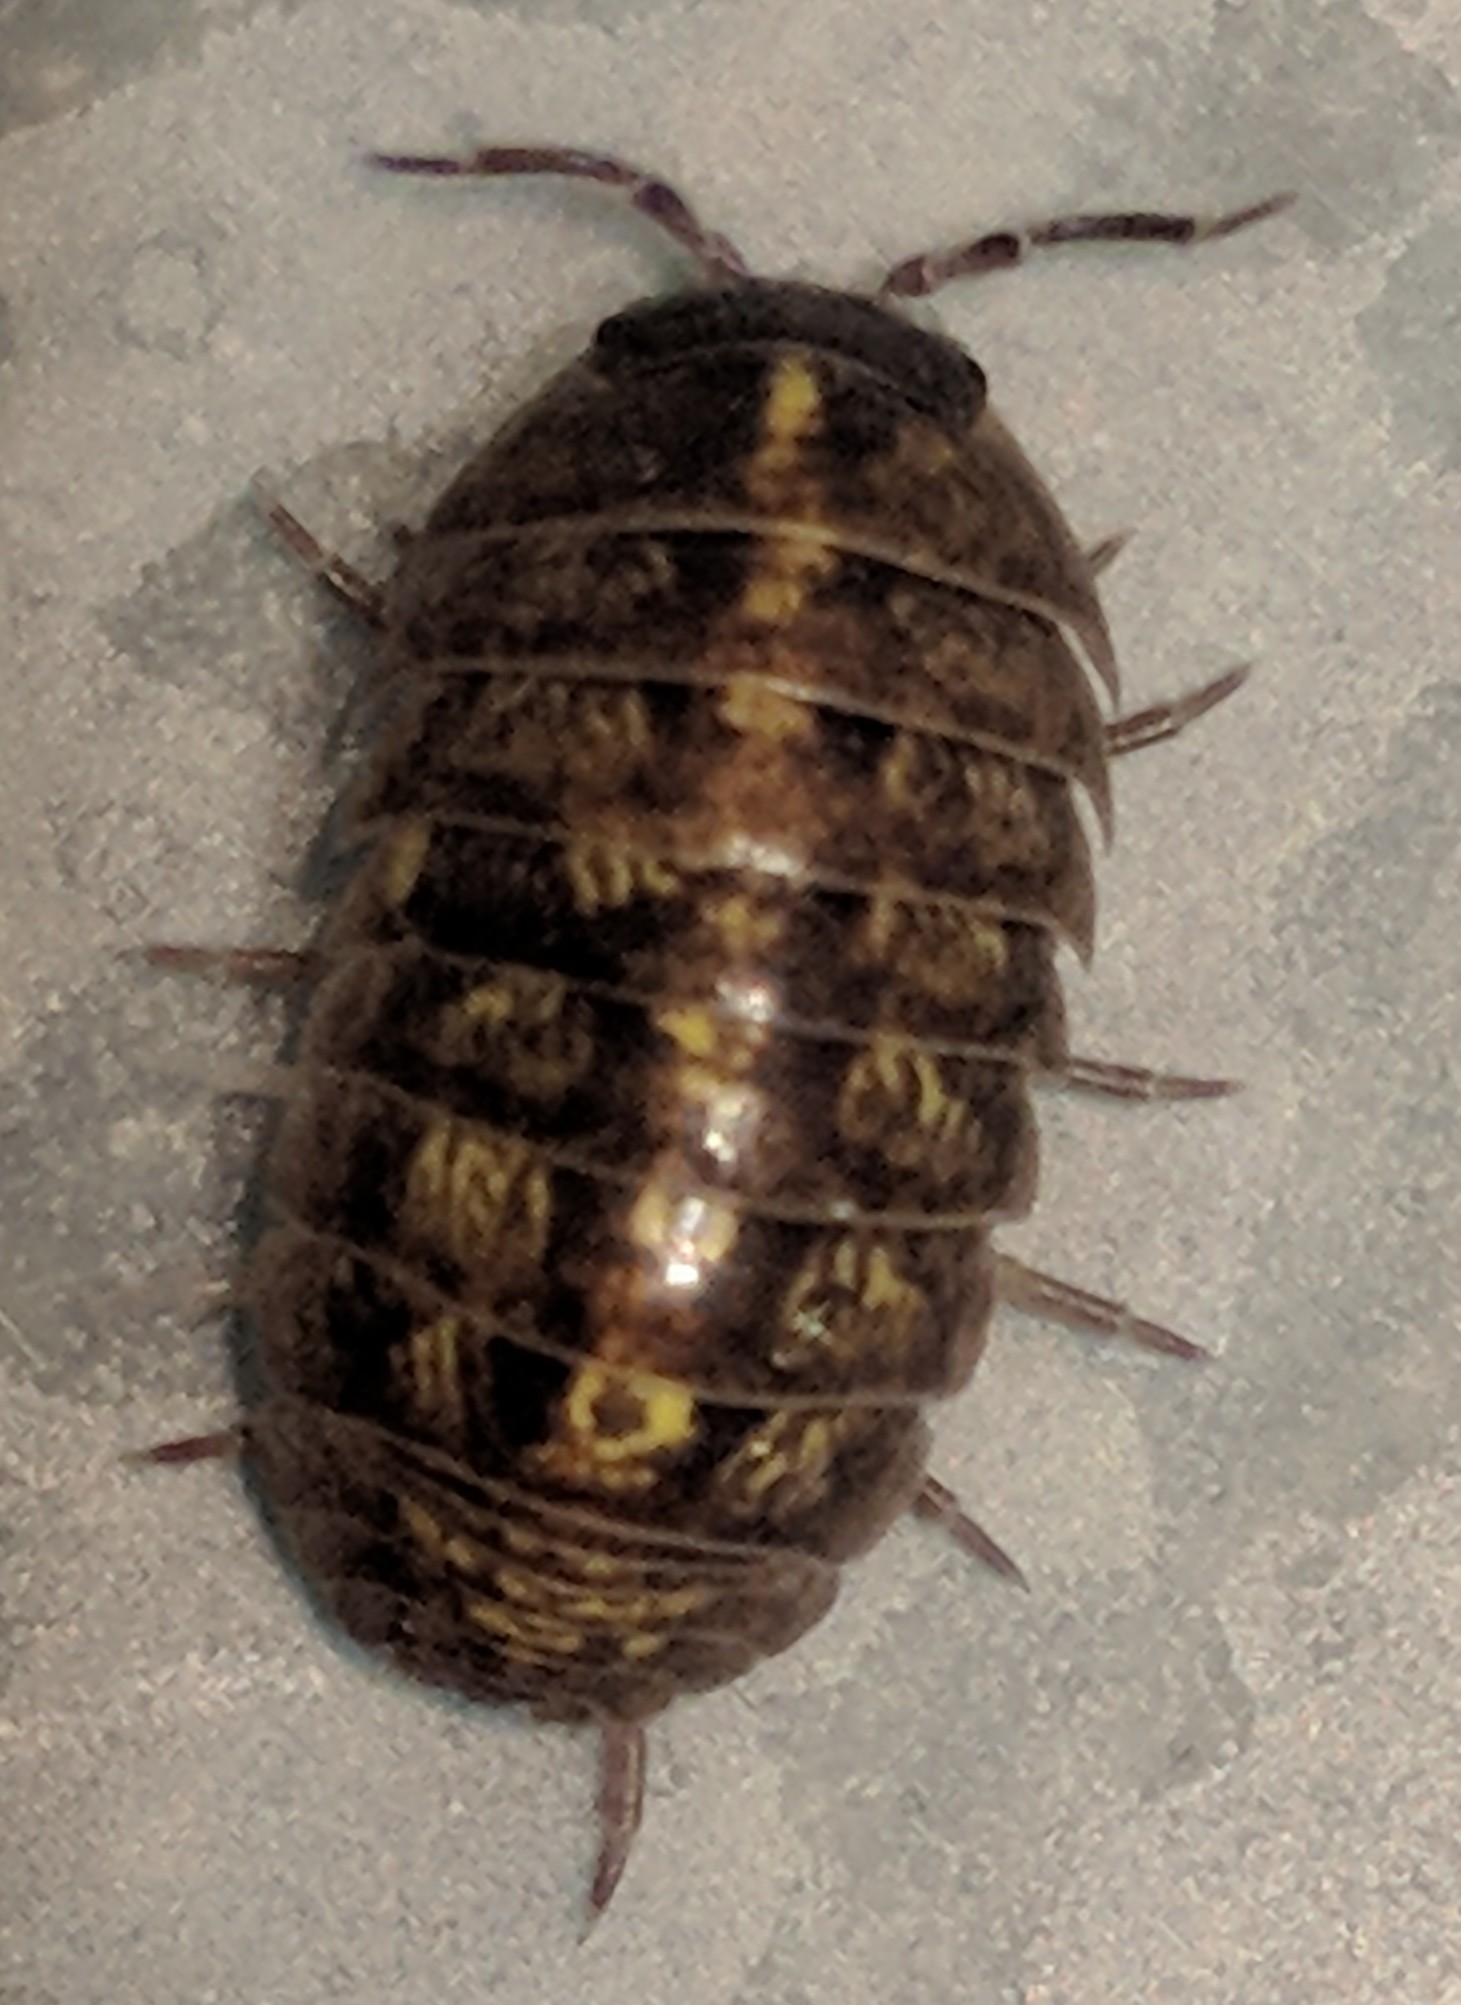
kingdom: Animalia
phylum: Arthropoda
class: Malacostraca
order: Isopoda
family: Armadillidiidae
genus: Armadillidium
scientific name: Armadillidium vulgare
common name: Common pill woodlouse
